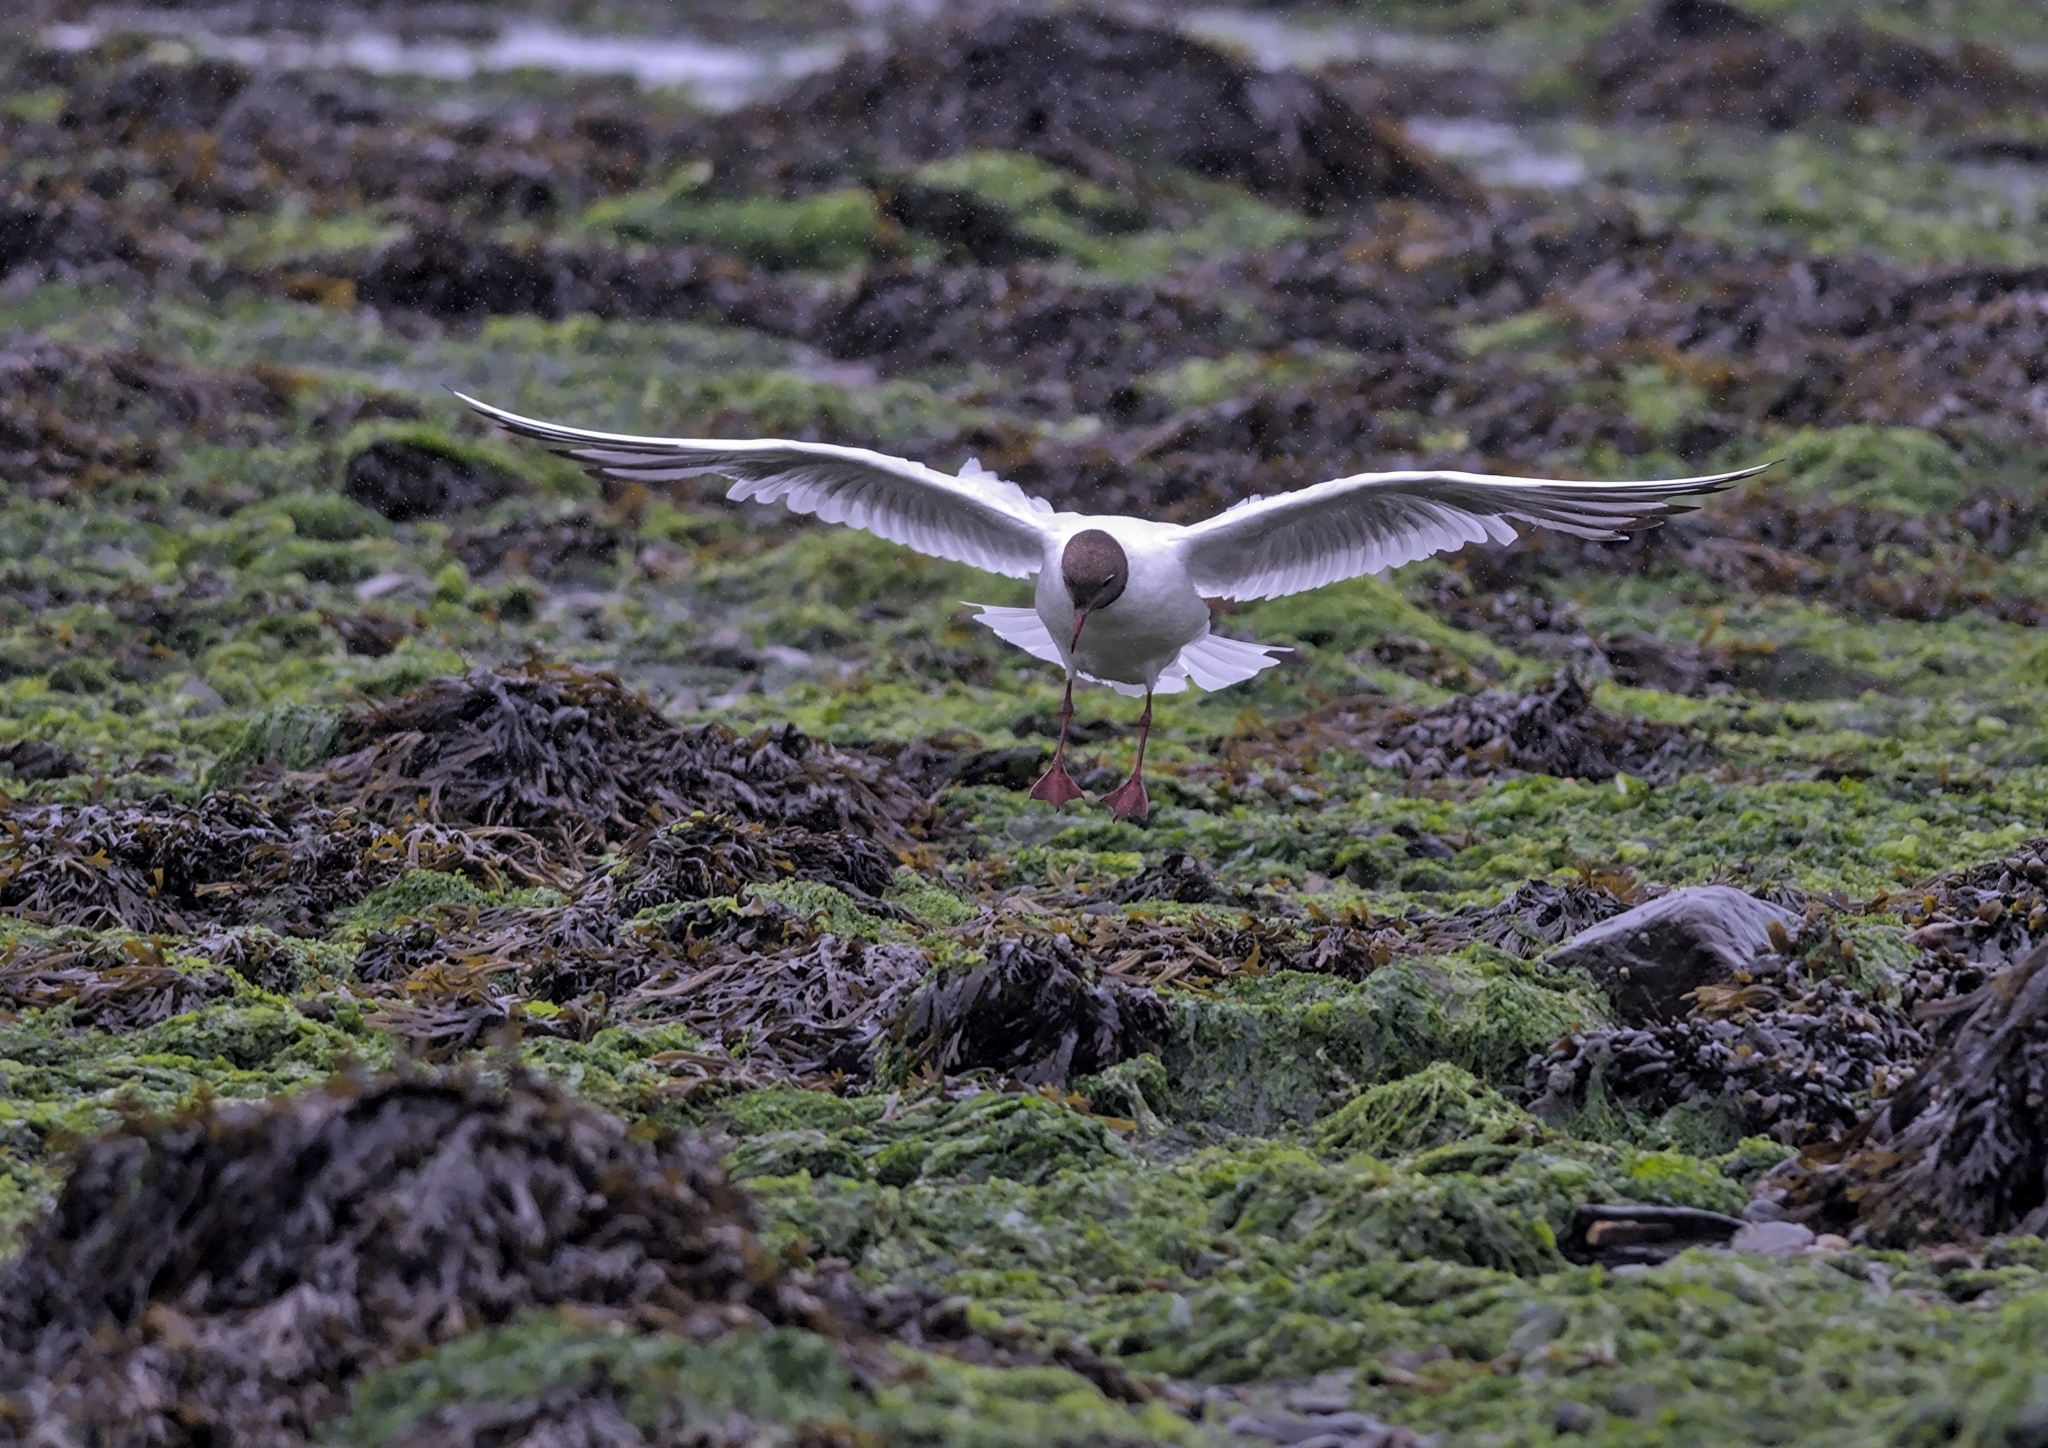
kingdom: Animalia
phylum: Chordata
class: Aves
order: Charadriiformes
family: Laridae
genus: Chroicocephalus
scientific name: Chroicocephalus ridibundus
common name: Black-headed gull
